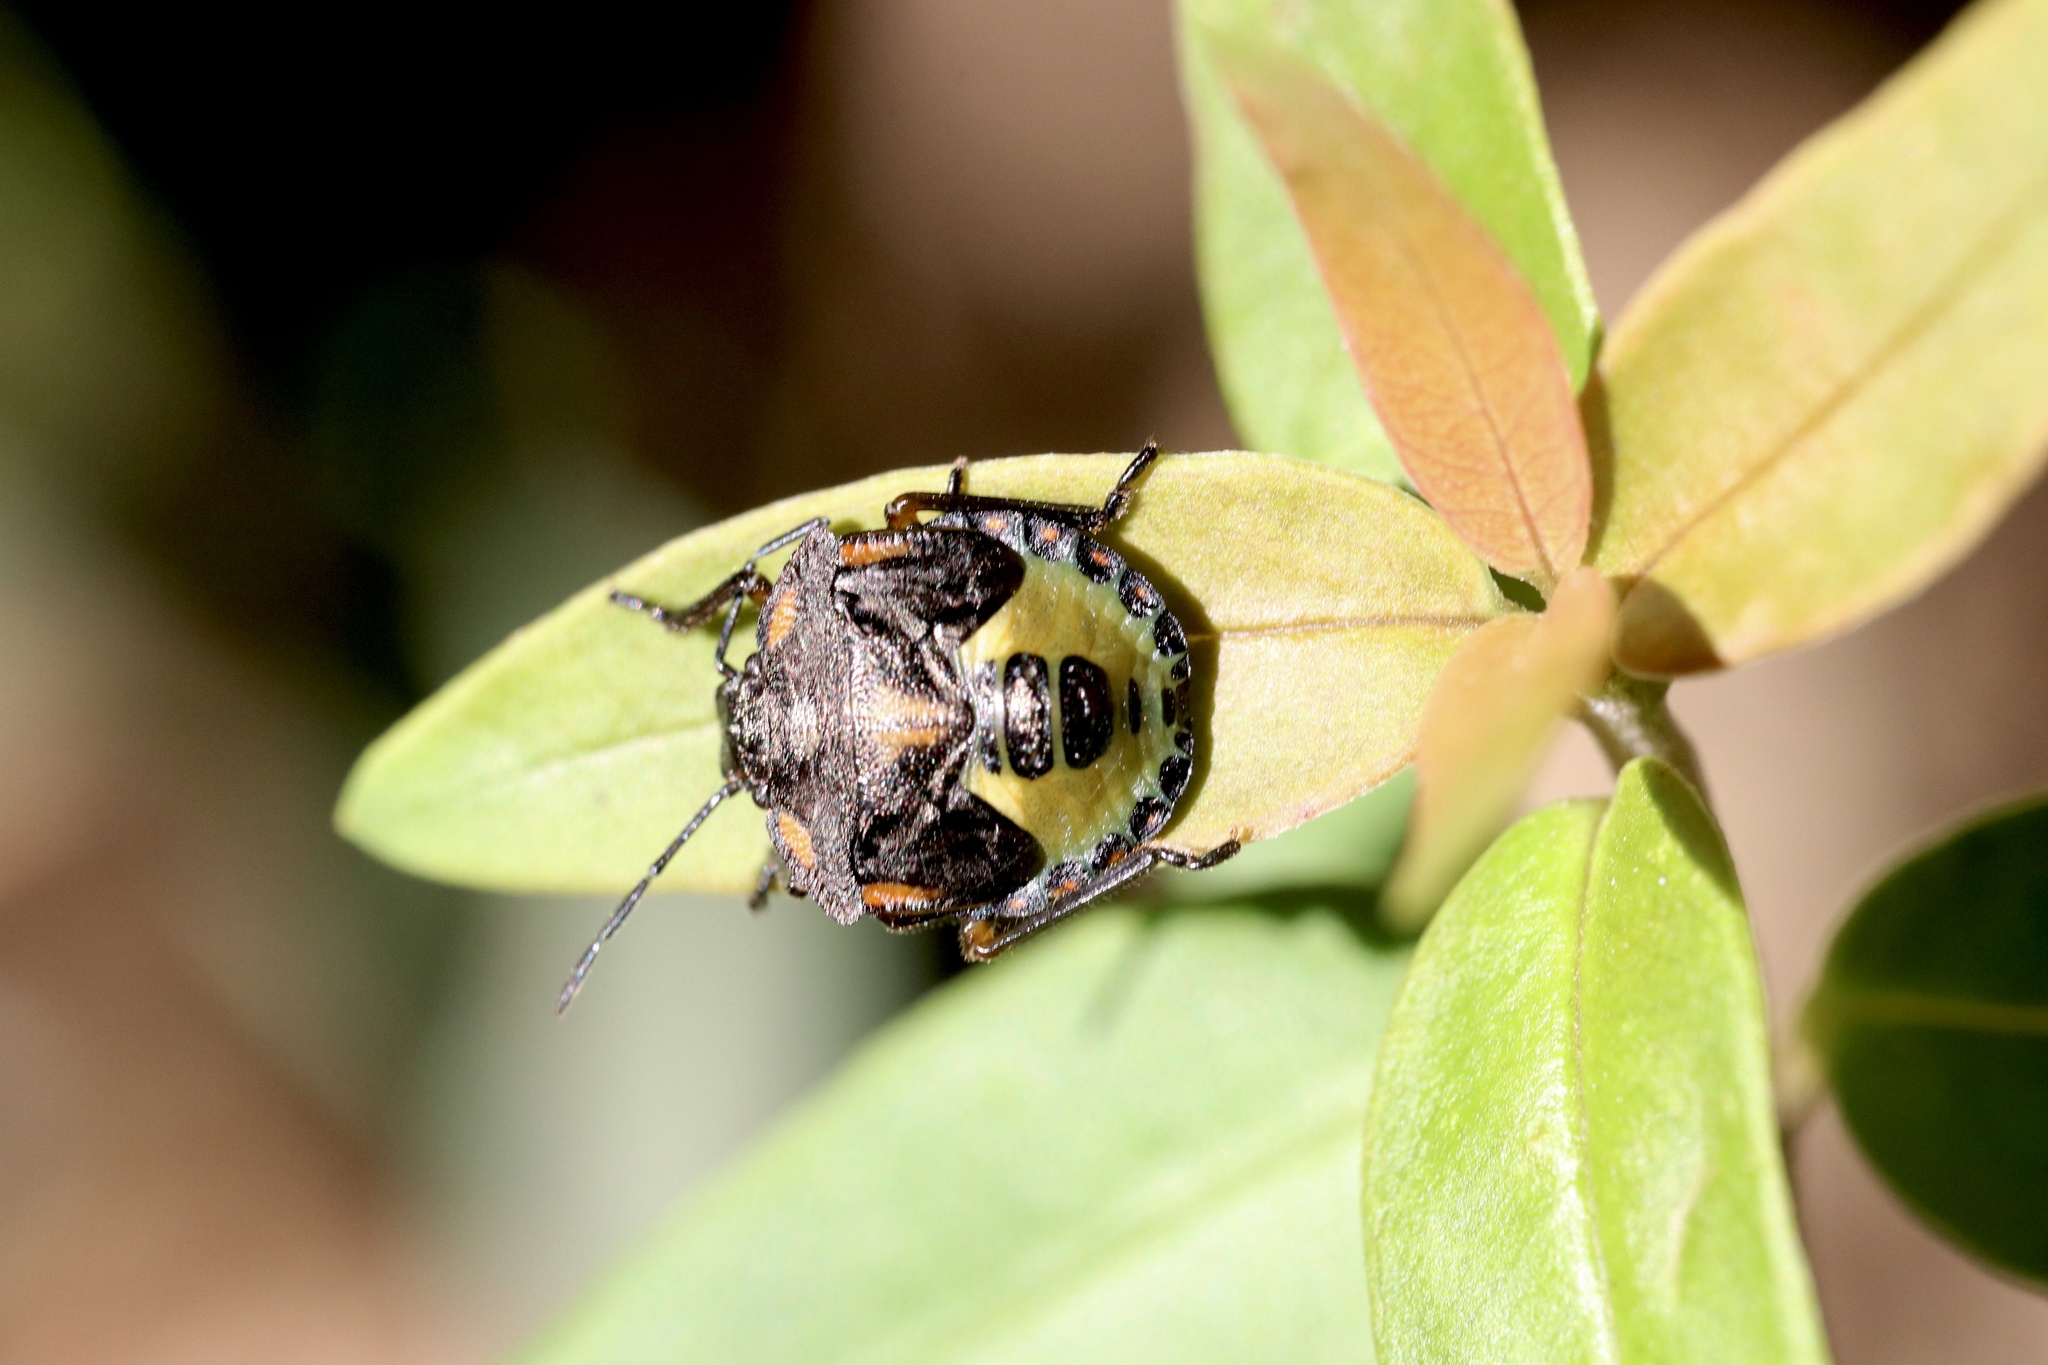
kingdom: Animalia
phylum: Arthropoda
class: Insecta
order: Hemiptera
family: Pentatomidae
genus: Chinavia
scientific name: Chinavia perezi
